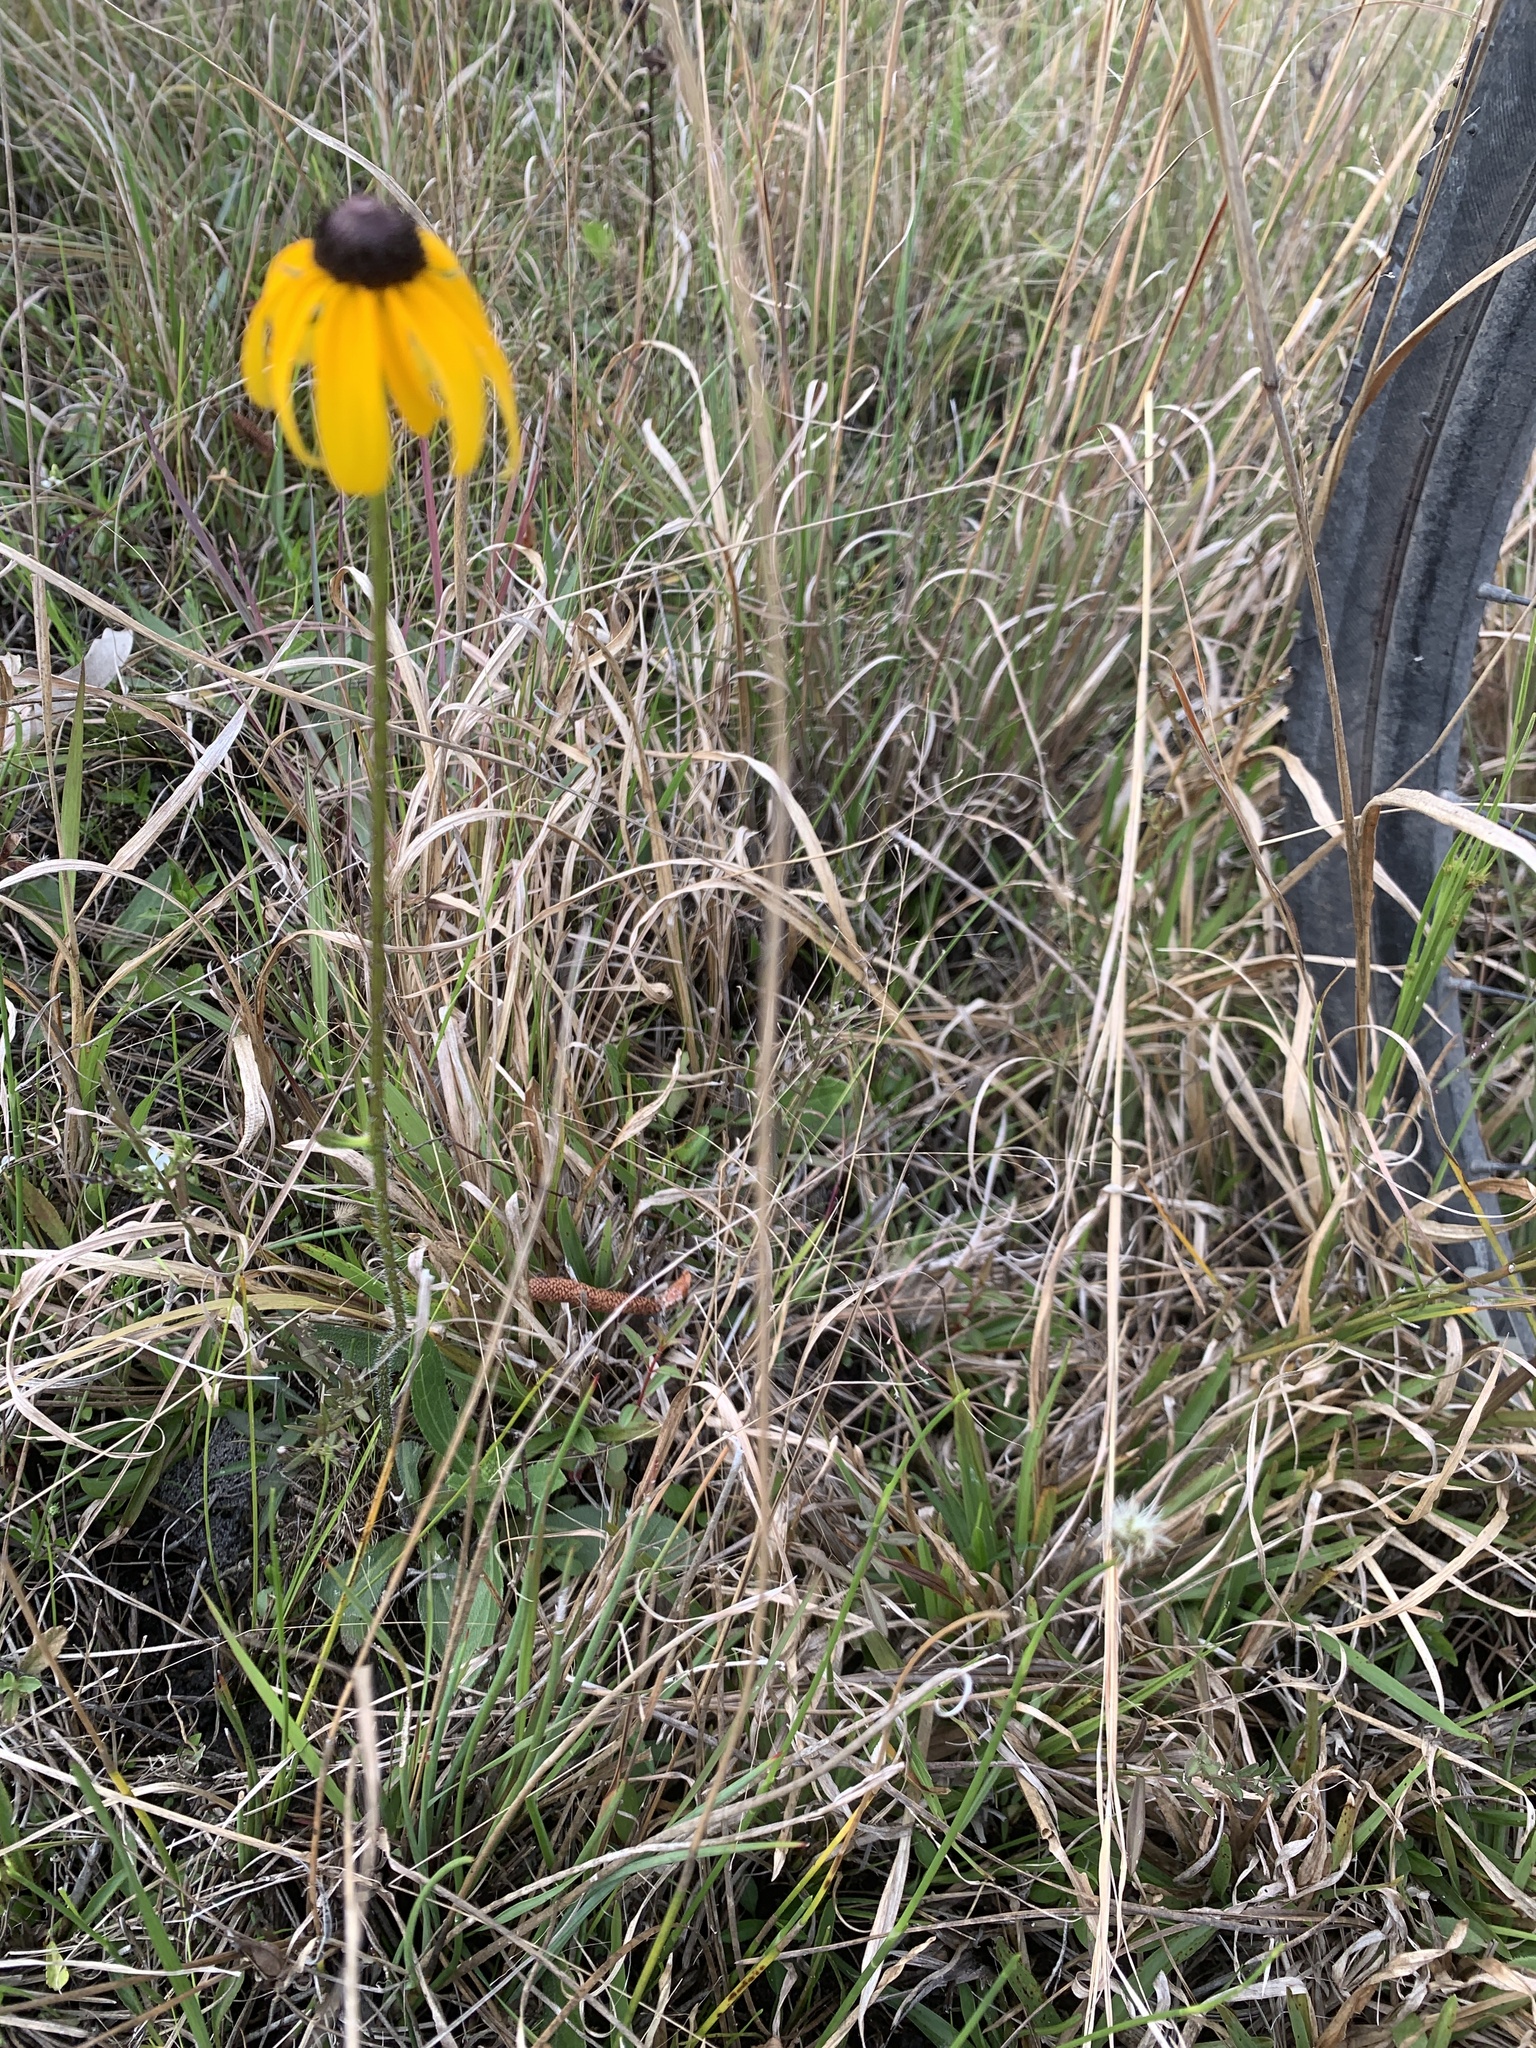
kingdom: Plantae
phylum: Tracheophyta
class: Magnoliopsida
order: Asterales
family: Asteraceae
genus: Rudbeckia
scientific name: Rudbeckia hirta
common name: Black-eyed-susan
